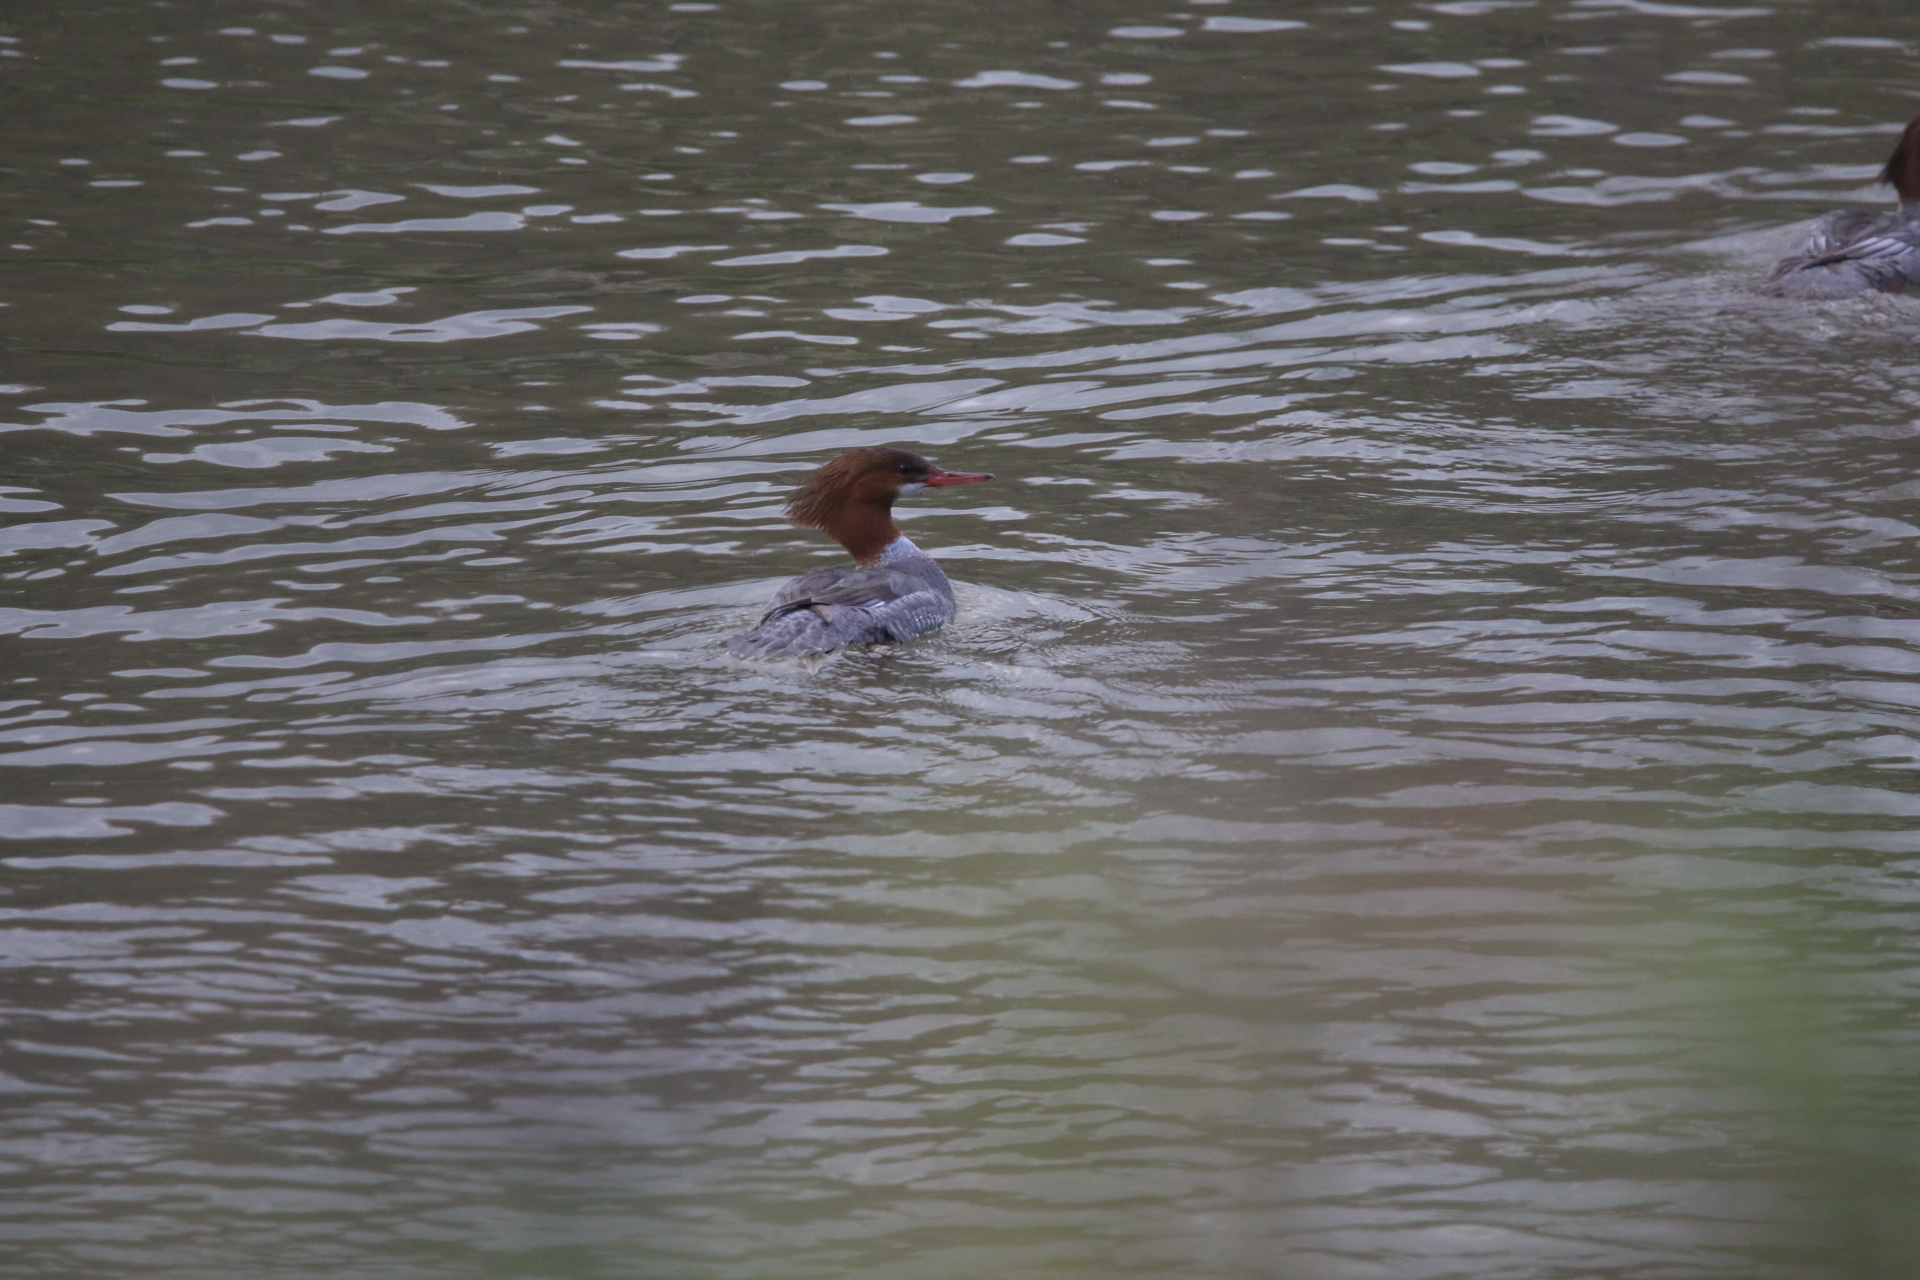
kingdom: Animalia
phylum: Chordata
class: Aves
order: Anseriformes
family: Anatidae
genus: Mergus
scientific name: Mergus merganser
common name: Common merganser
